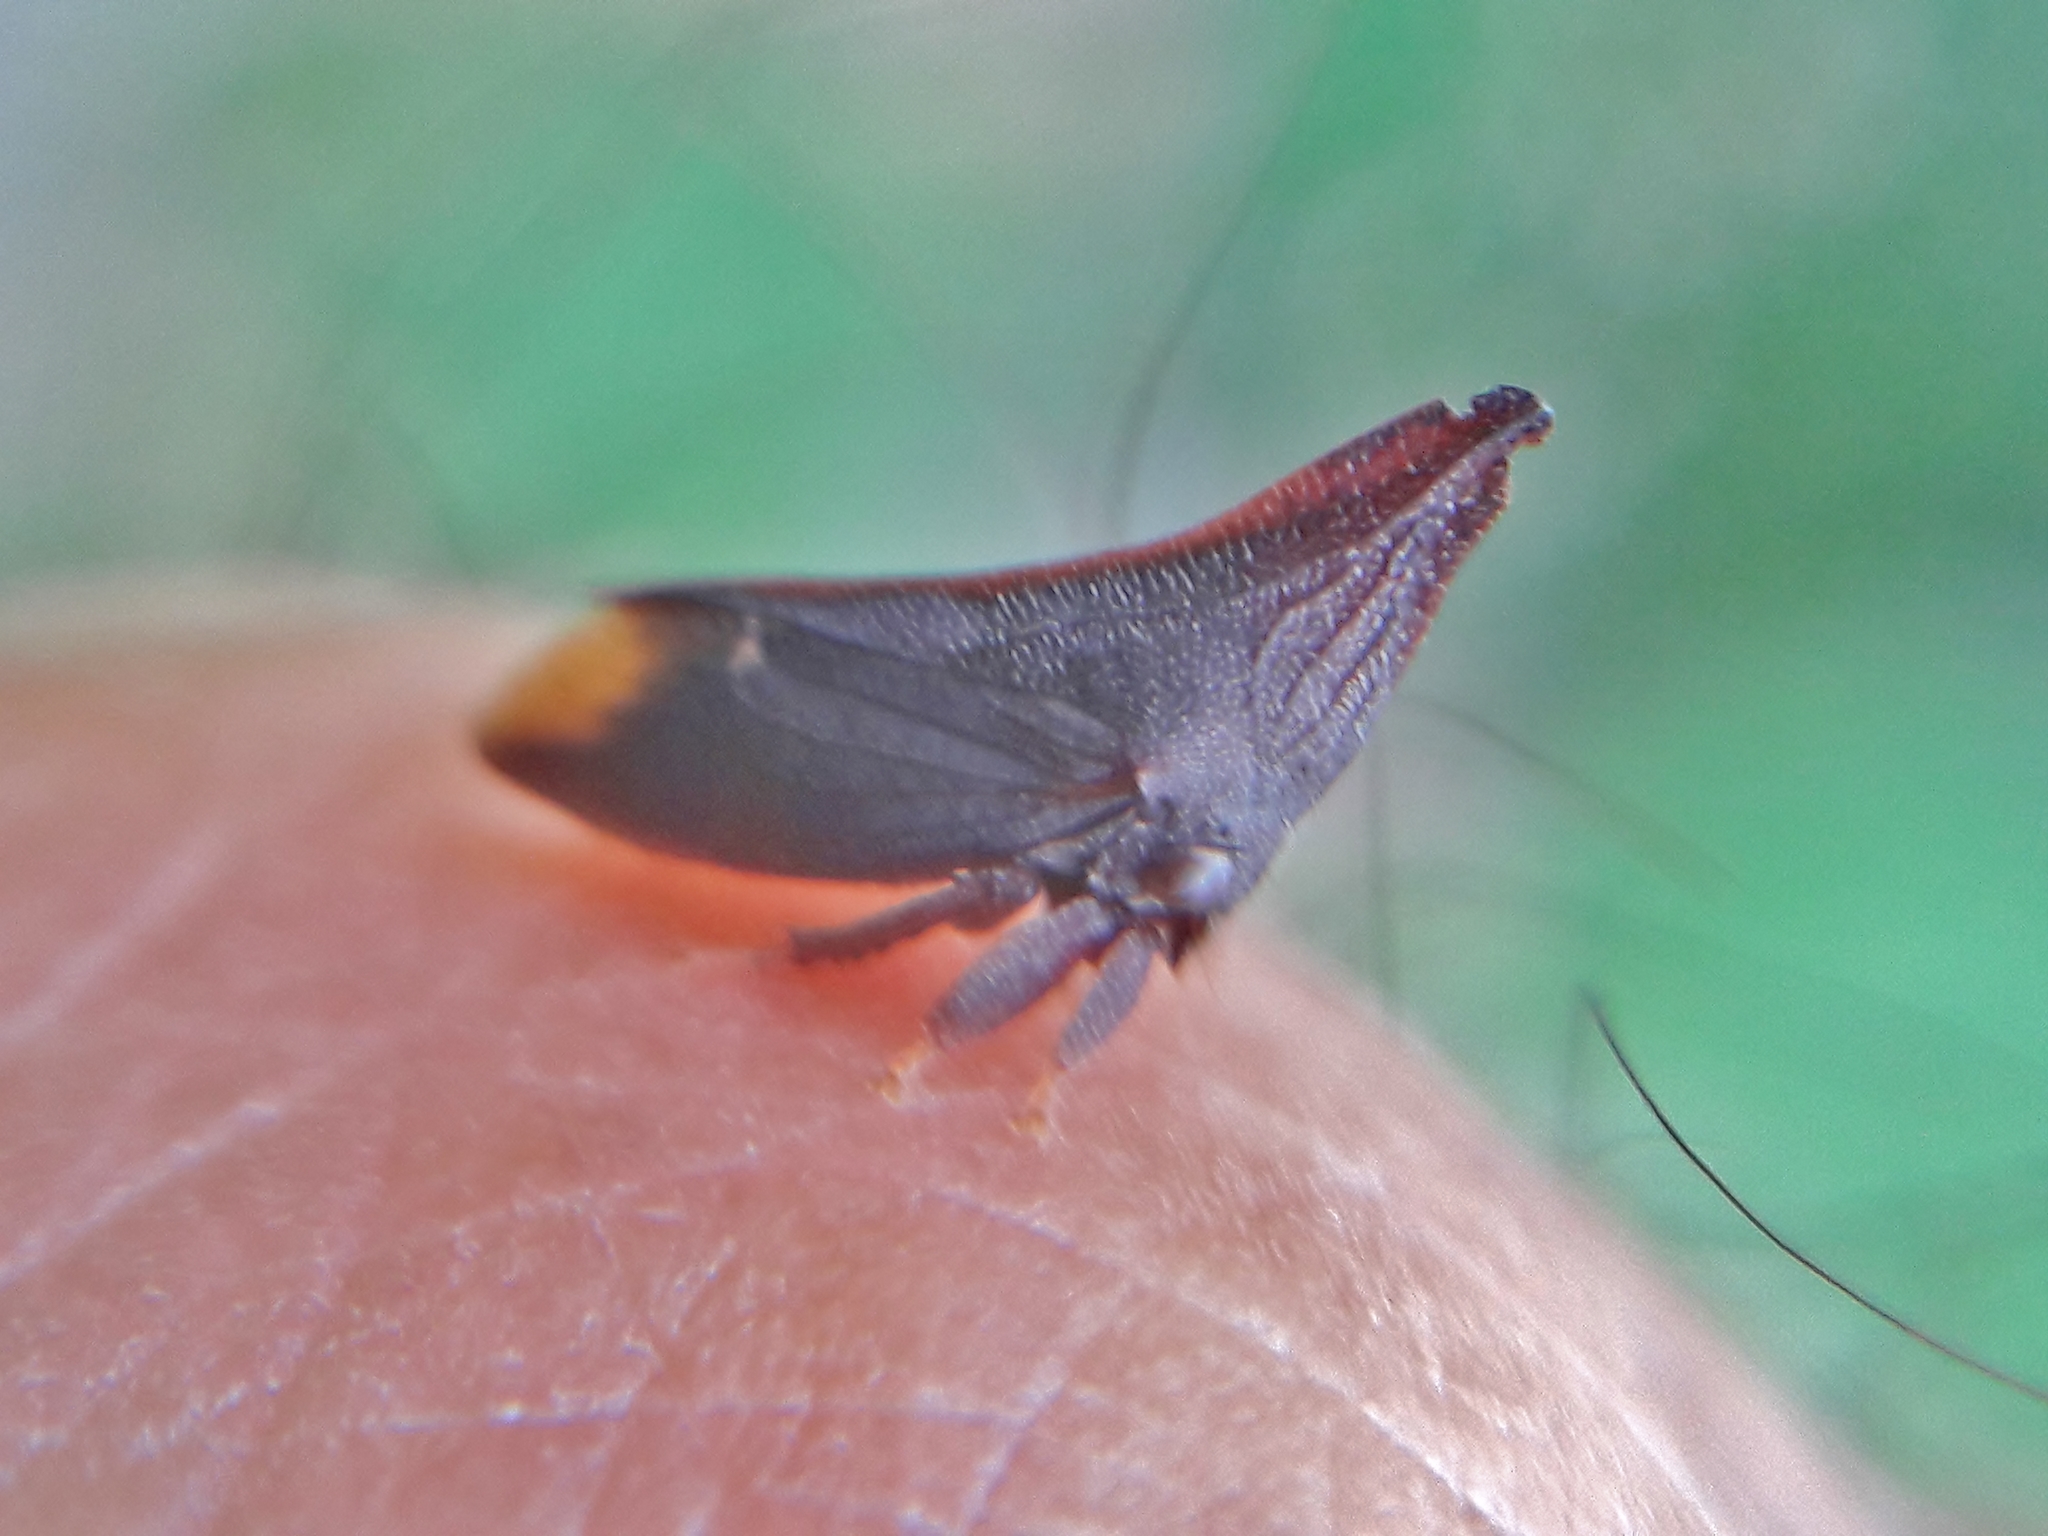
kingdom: Animalia
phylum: Arthropoda
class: Insecta
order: Hemiptera
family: Membracidae
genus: Enchenopa
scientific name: Enchenopa monoceros
